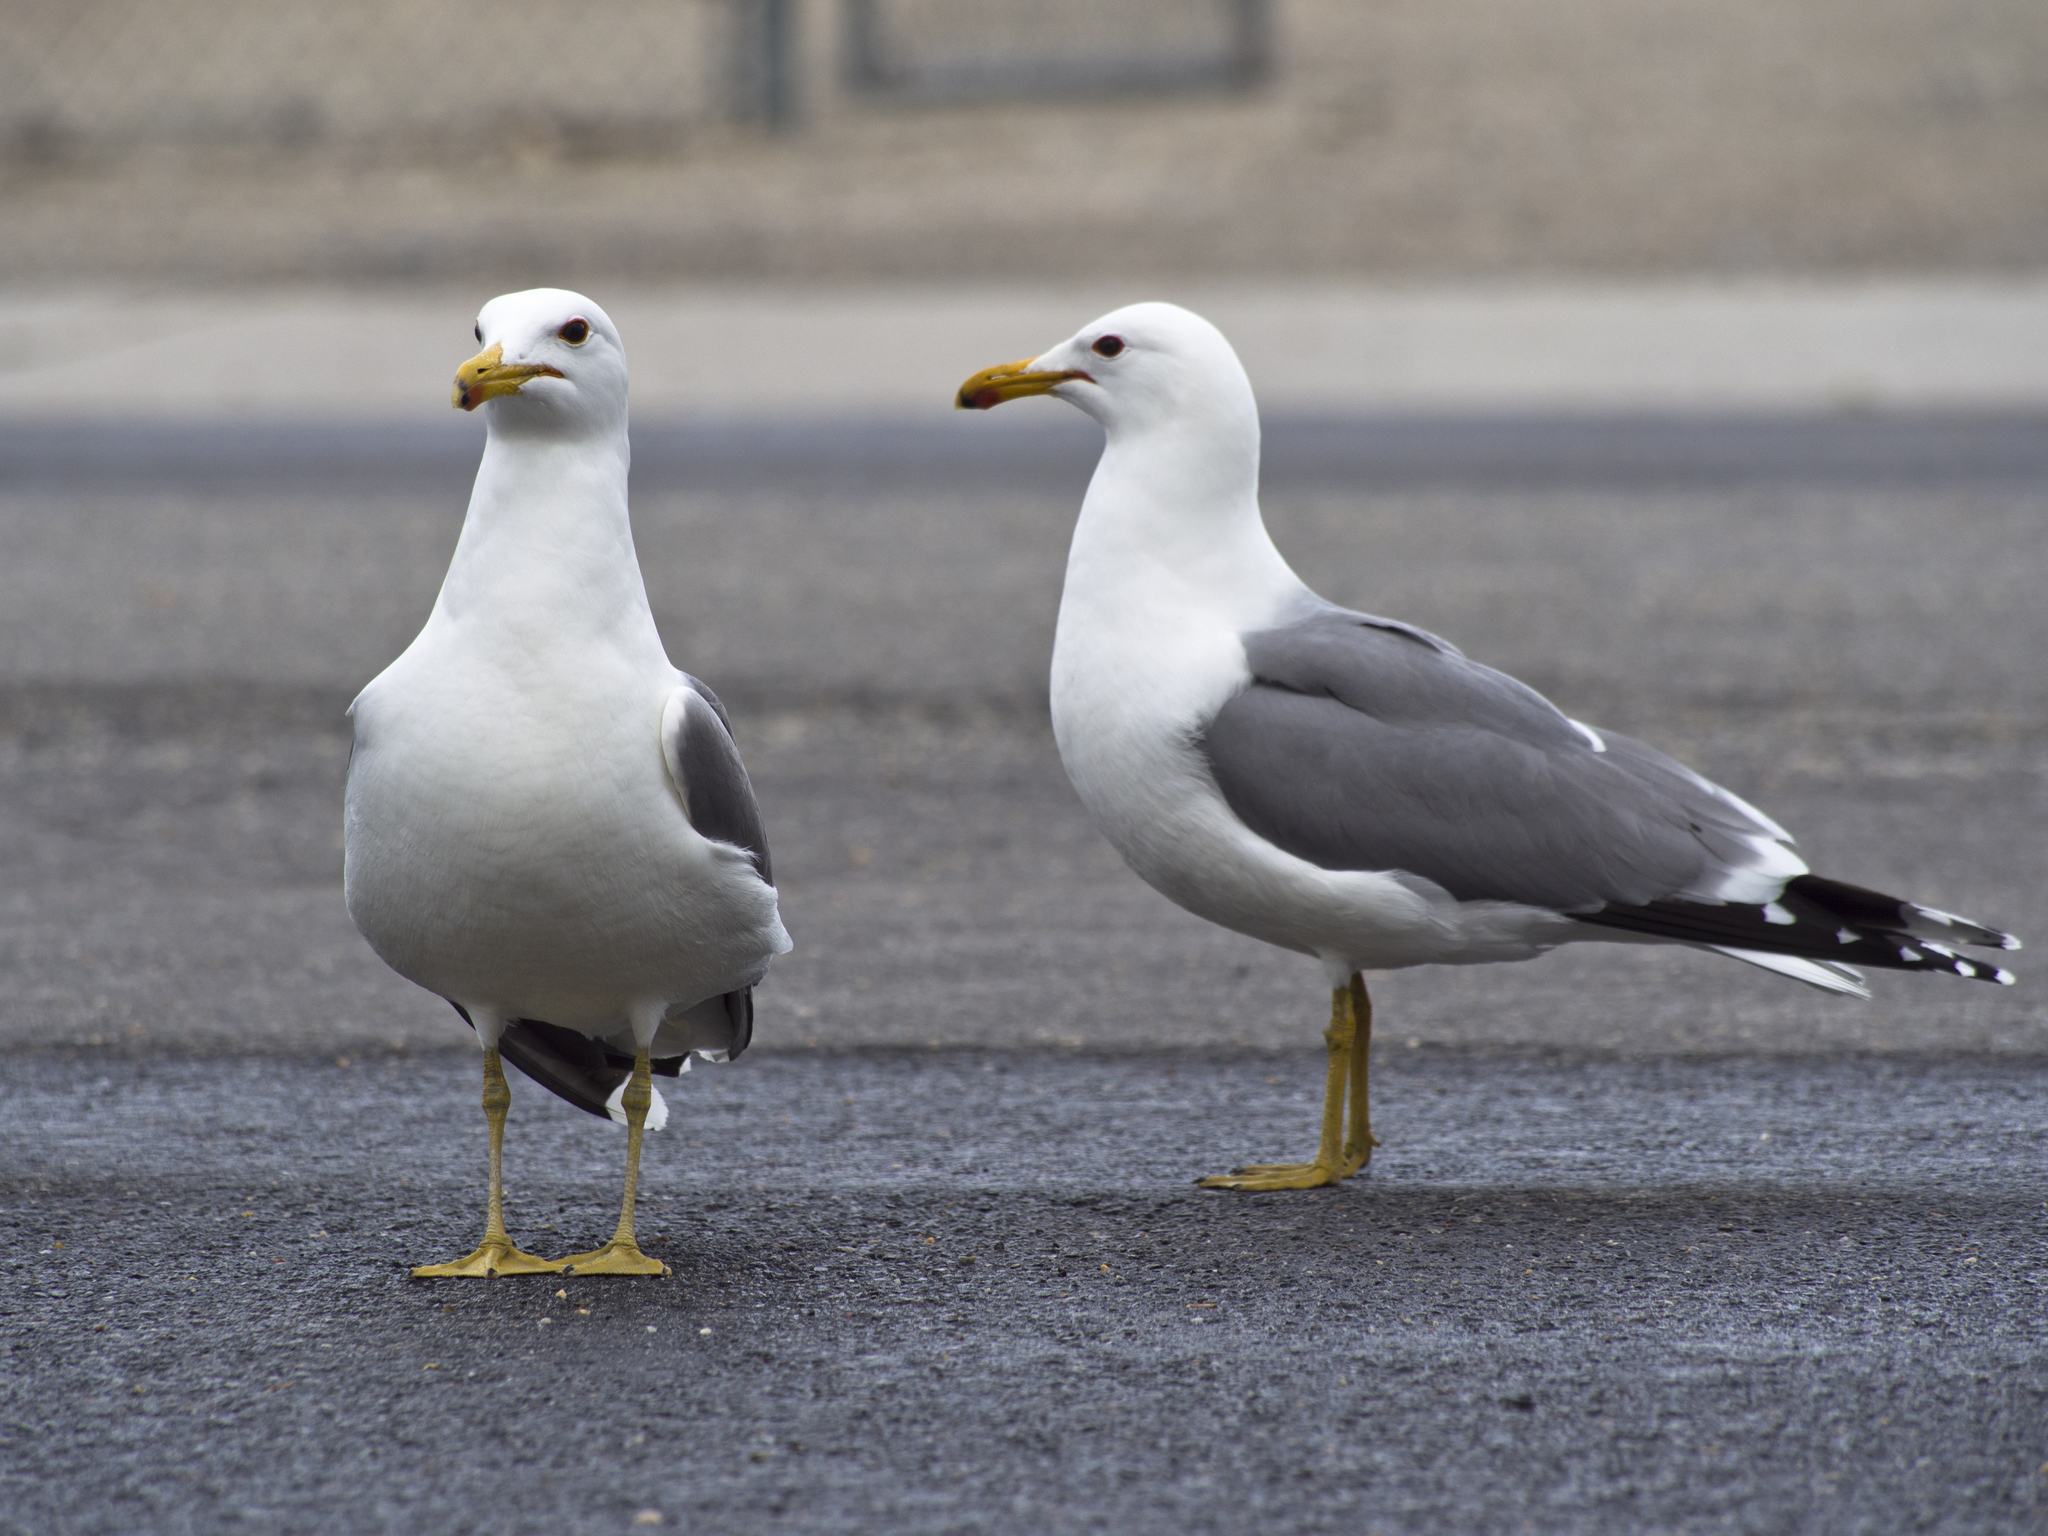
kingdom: Animalia
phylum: Chordata
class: Aves
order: Charadriiformes
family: Laridae
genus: Larus
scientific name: Larus californicus
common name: California gull
